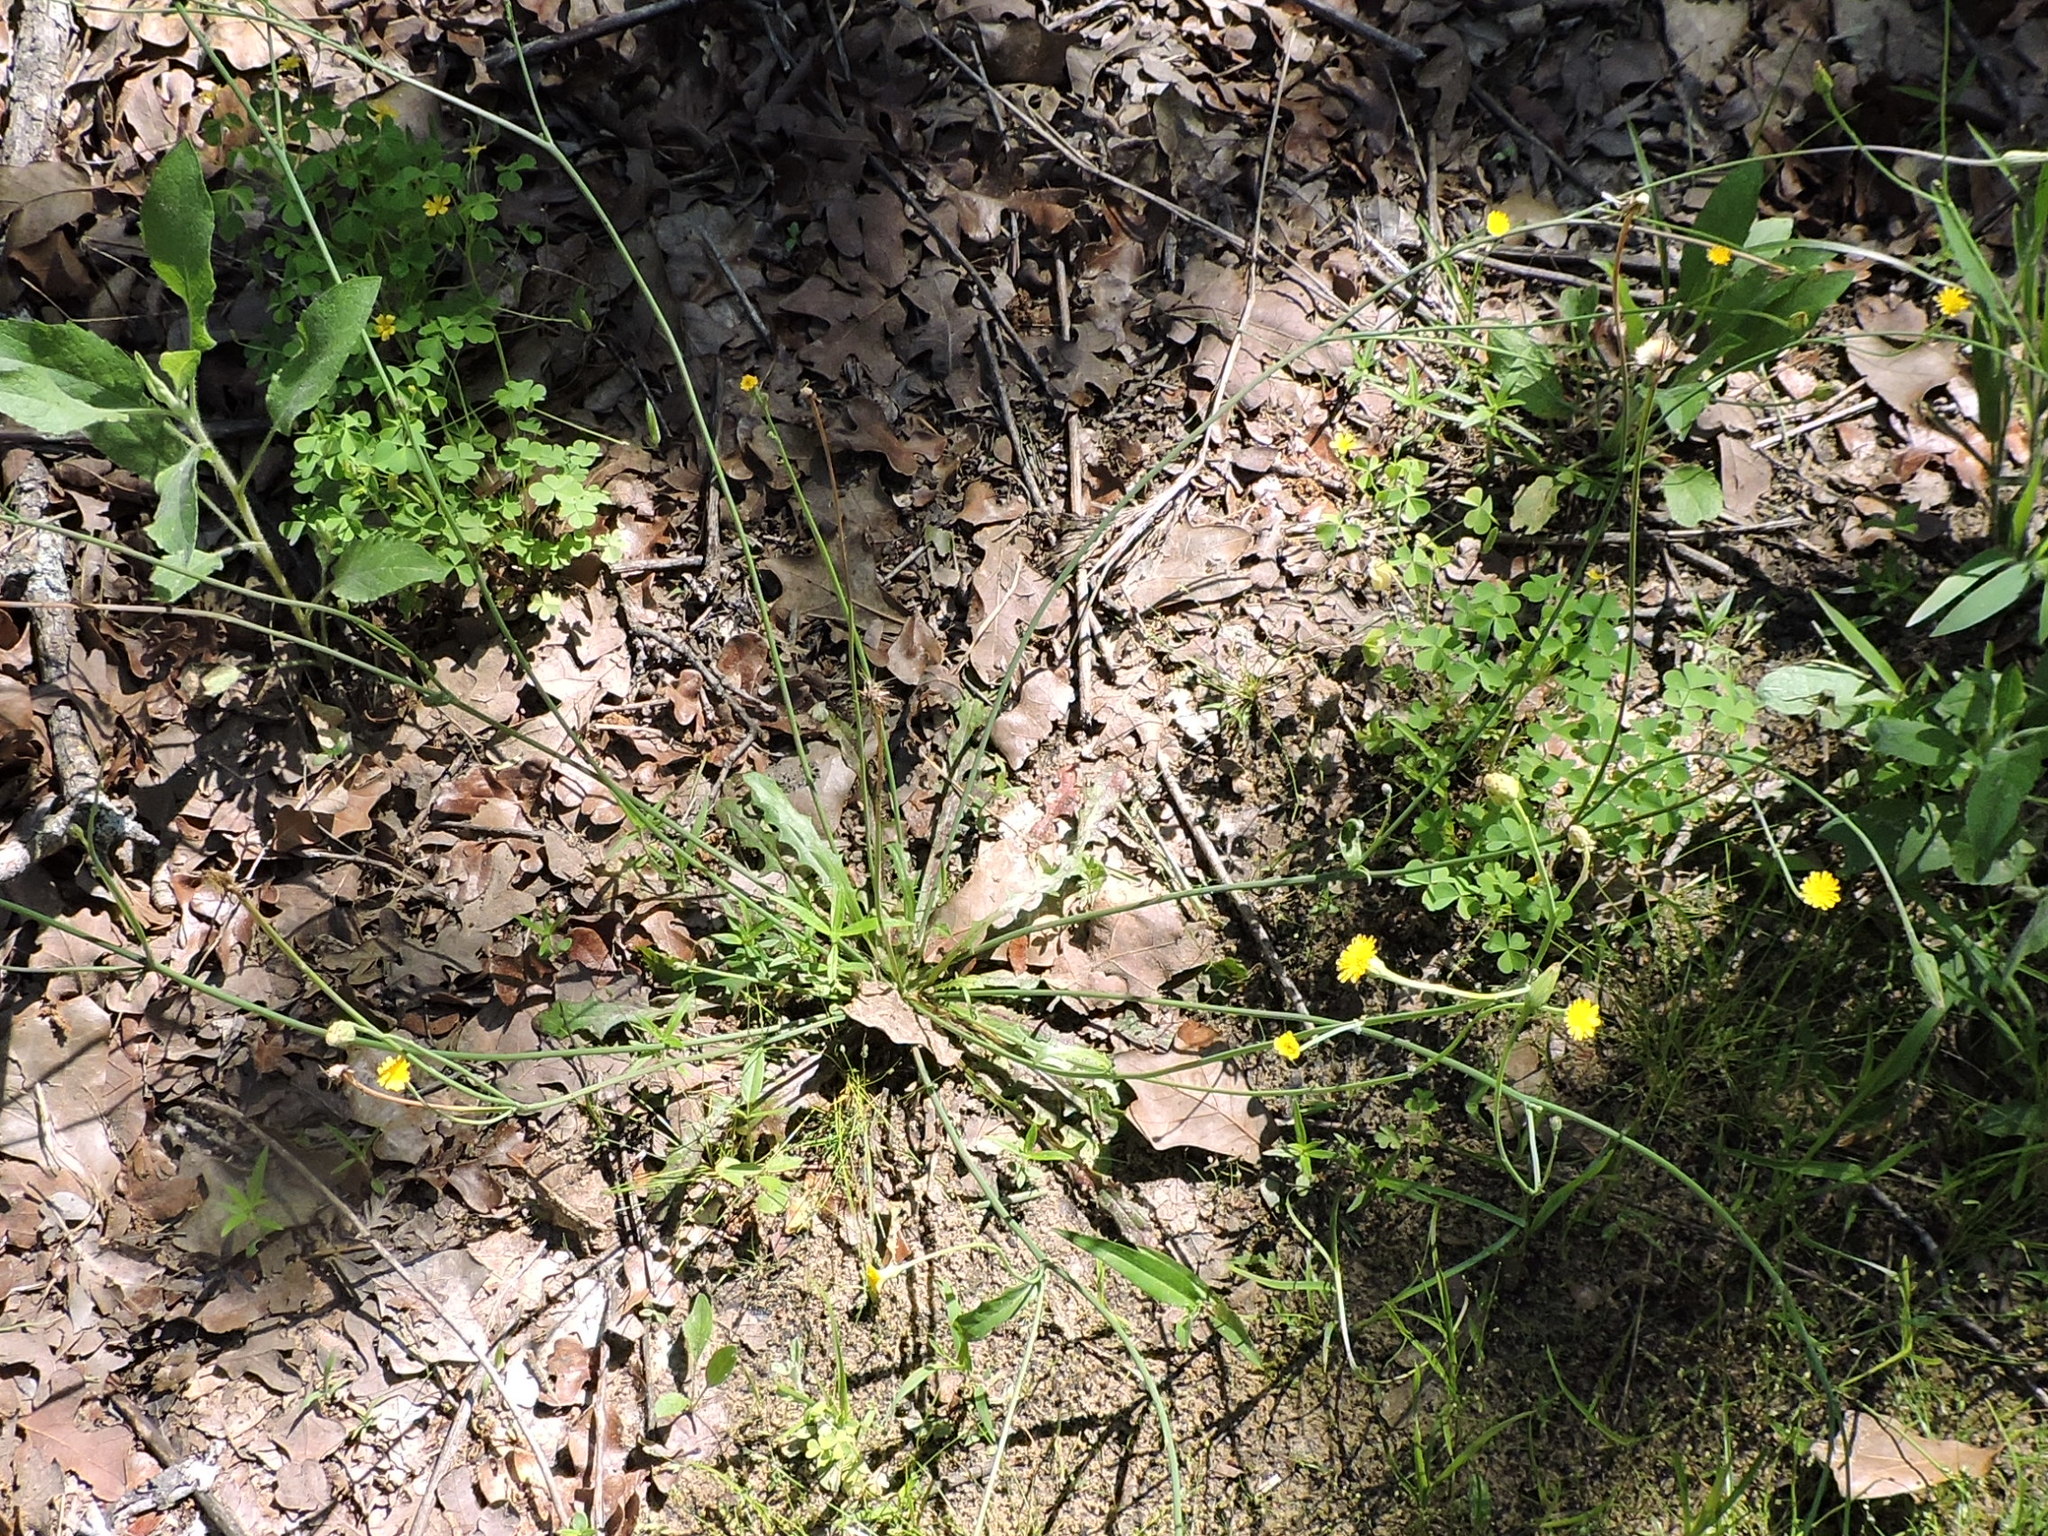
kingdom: Plantae
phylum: Tracheophyta
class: Magnoliopsida
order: Asterales
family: Asteraceae
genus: Hypochaeris
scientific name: Hypochaeris glabra
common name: Smooth catsear
